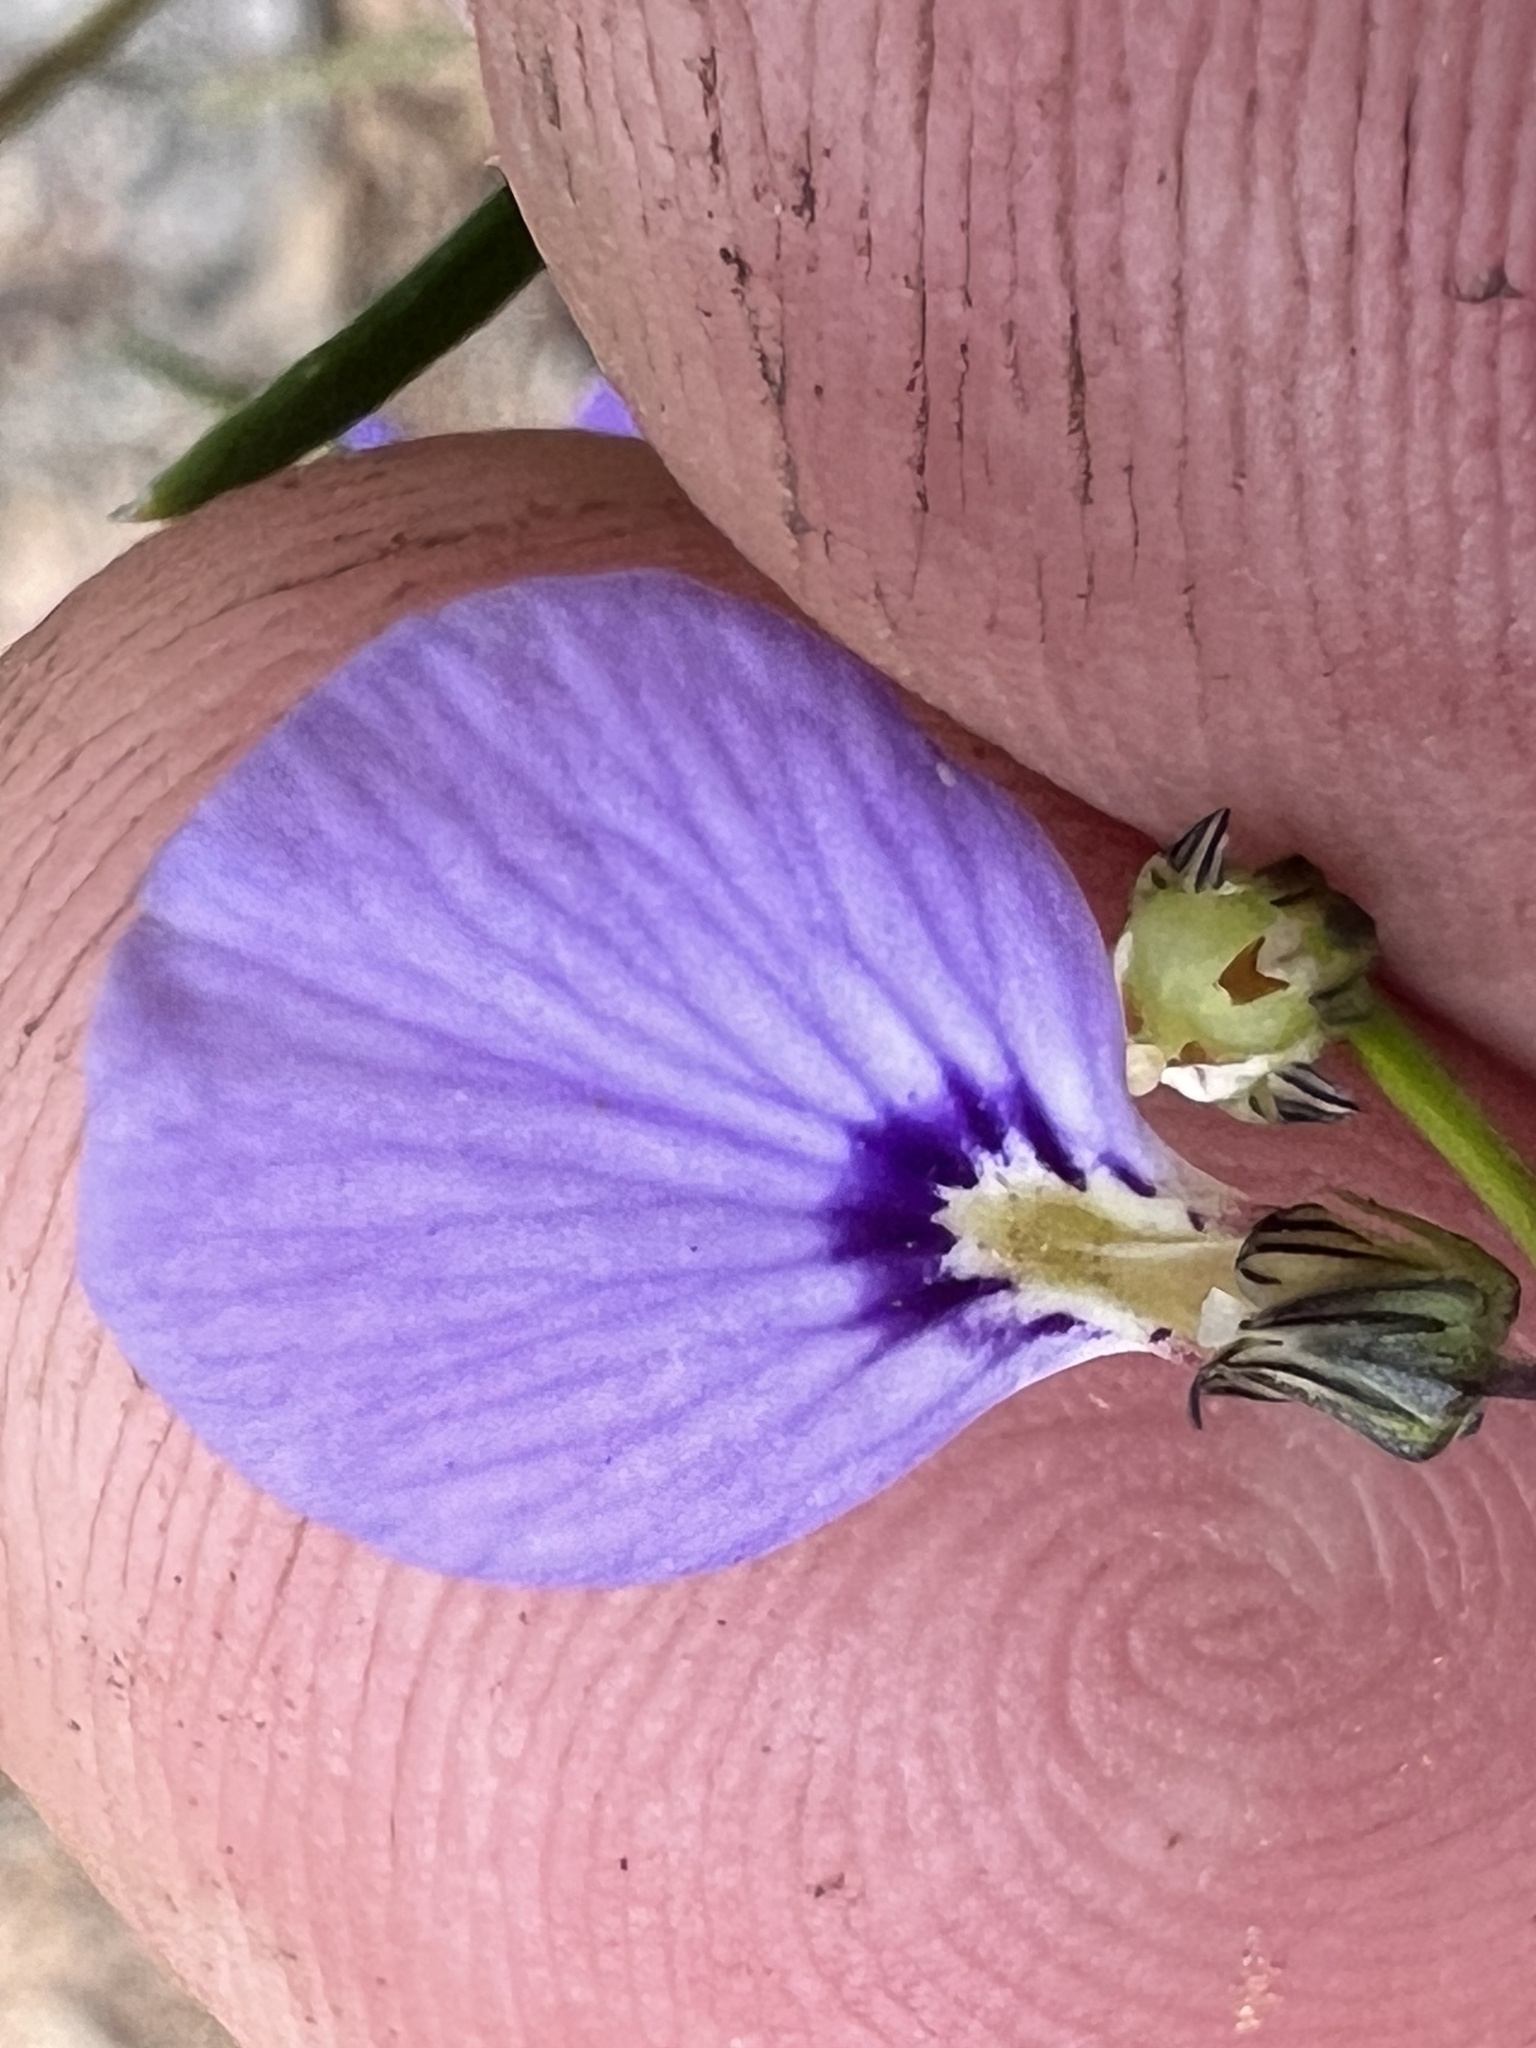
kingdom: Plantae
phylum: Tracheophyta
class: Magnoliopsida
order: Malpighiales
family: Violaceae
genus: Pigea
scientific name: Pigea monopetala
